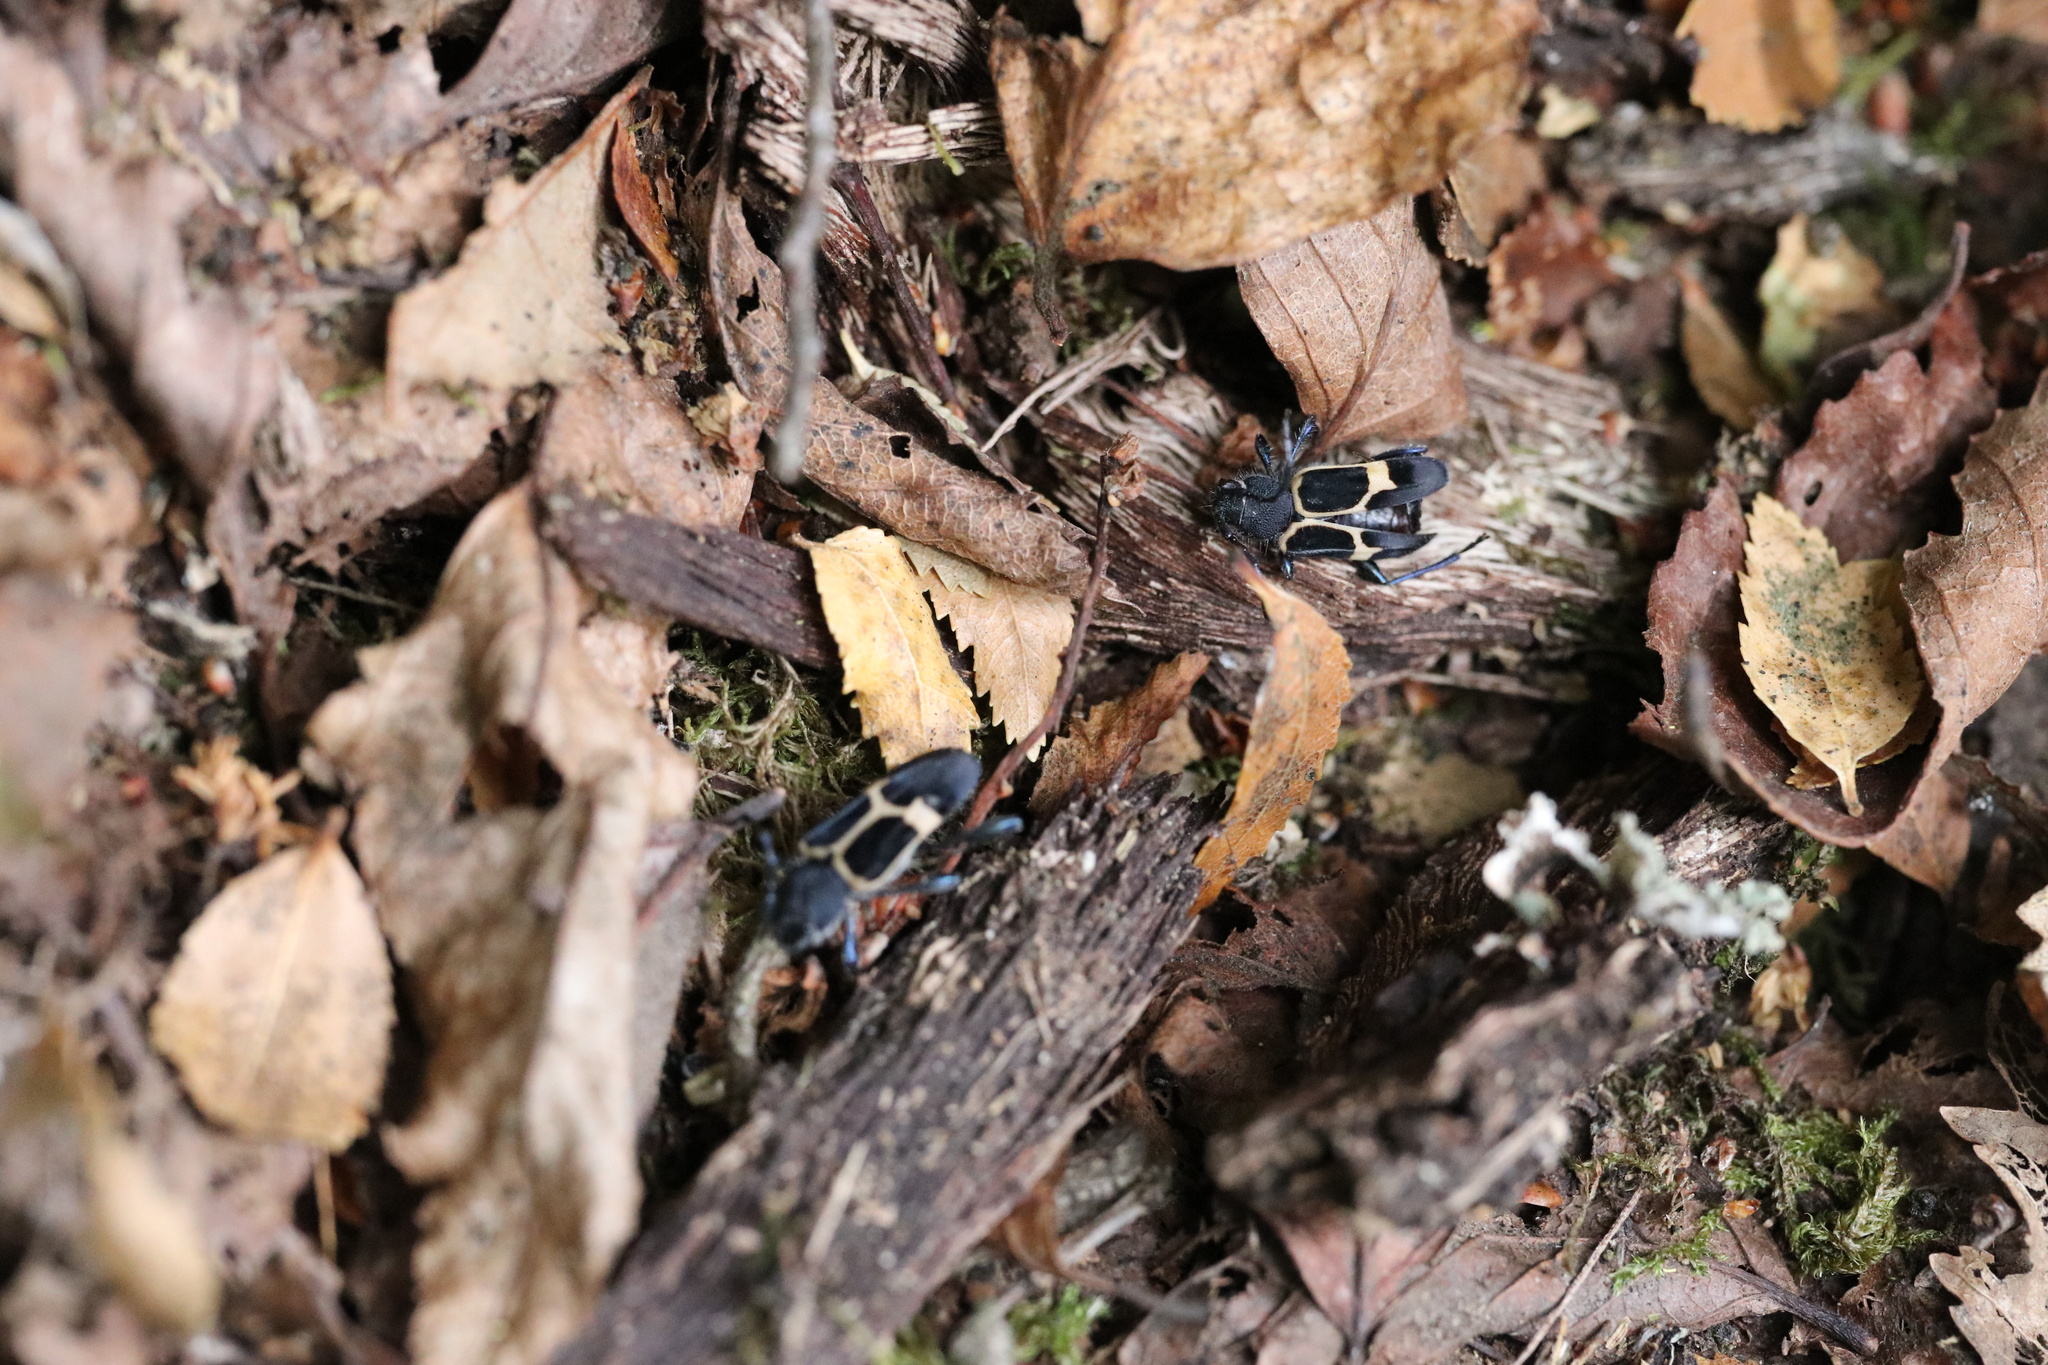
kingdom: Animalia
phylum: Arthropoda
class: Insecta
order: Coleoptera
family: Cerambycidae
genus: Calydon
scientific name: Calydon submetallicum
